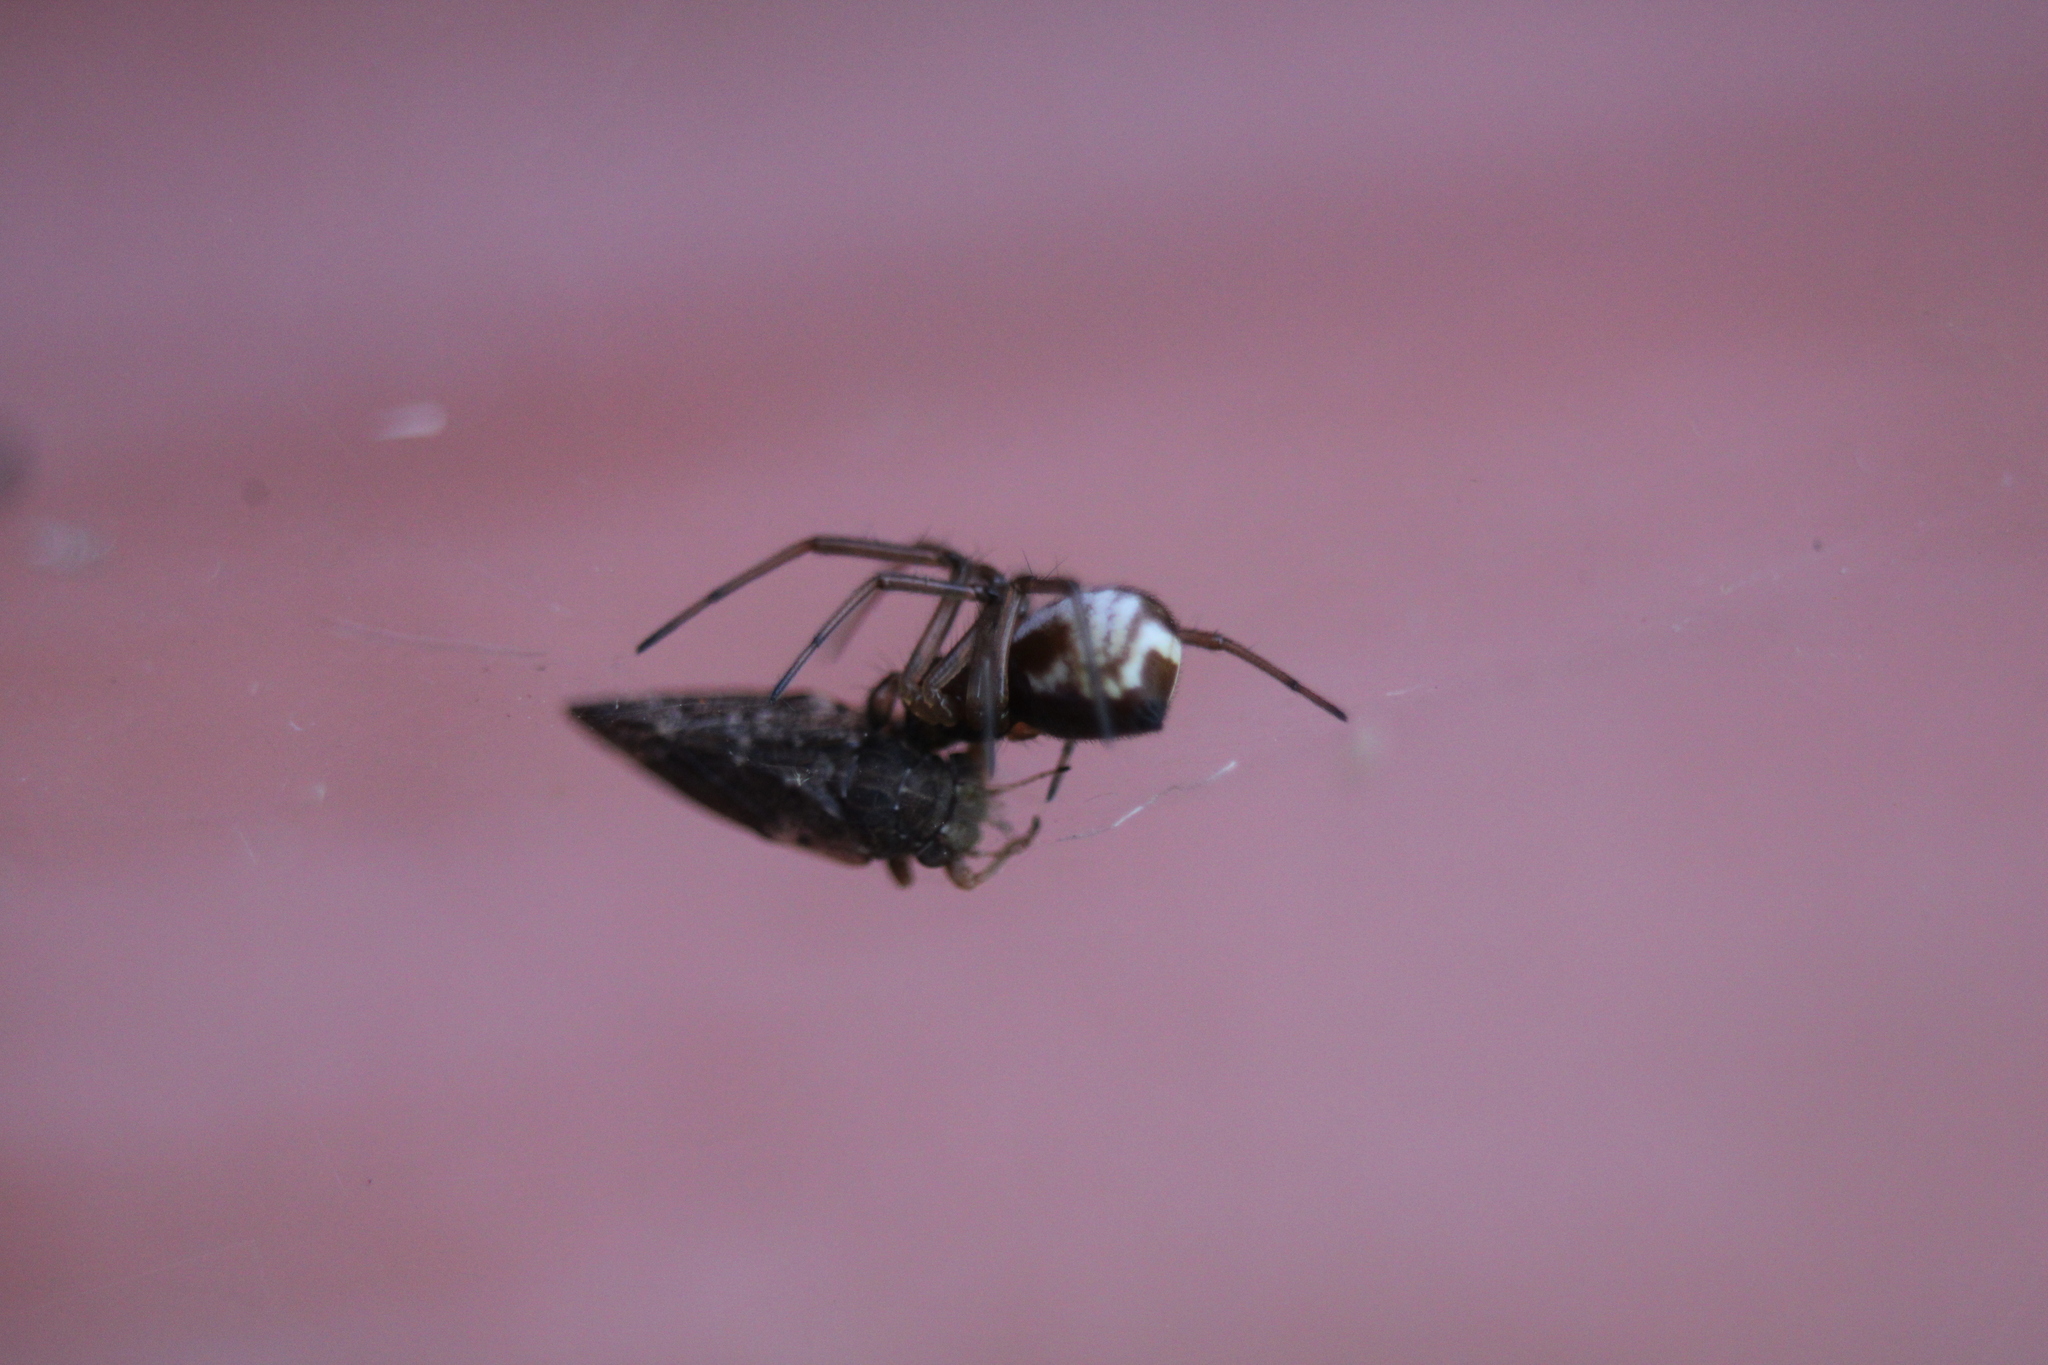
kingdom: Animalia
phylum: Arthropoda
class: Arachnida
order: Araneae
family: Linyphiidae
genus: Frontinella
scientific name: Frontinella pyramitela
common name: Bowl-and-doily spider
